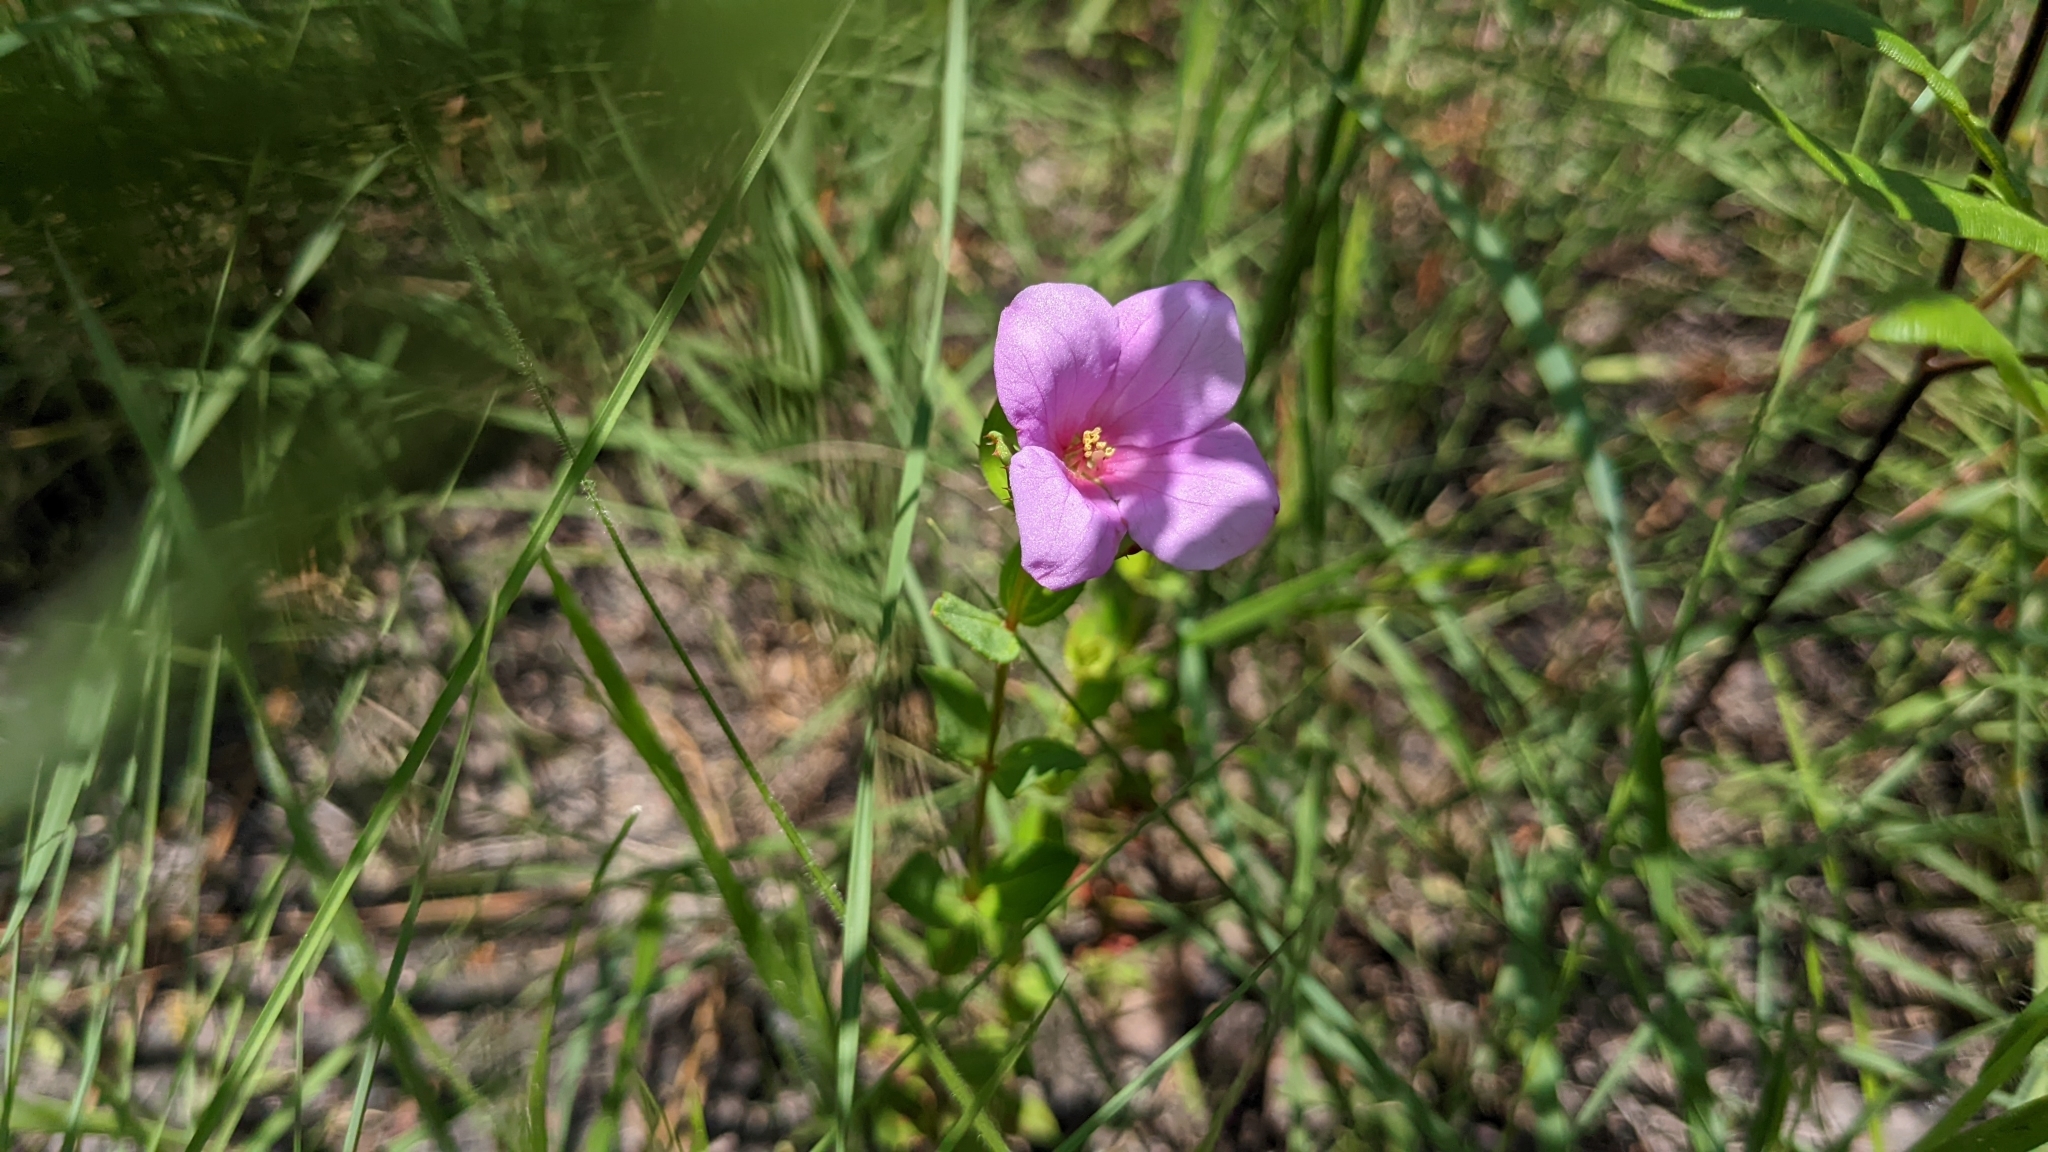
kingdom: Plantae
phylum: Tracheophyta
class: Magnoliopsida
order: Myrtales
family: Melastomataceae
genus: Rhexia
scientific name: Rhexia petiolata
